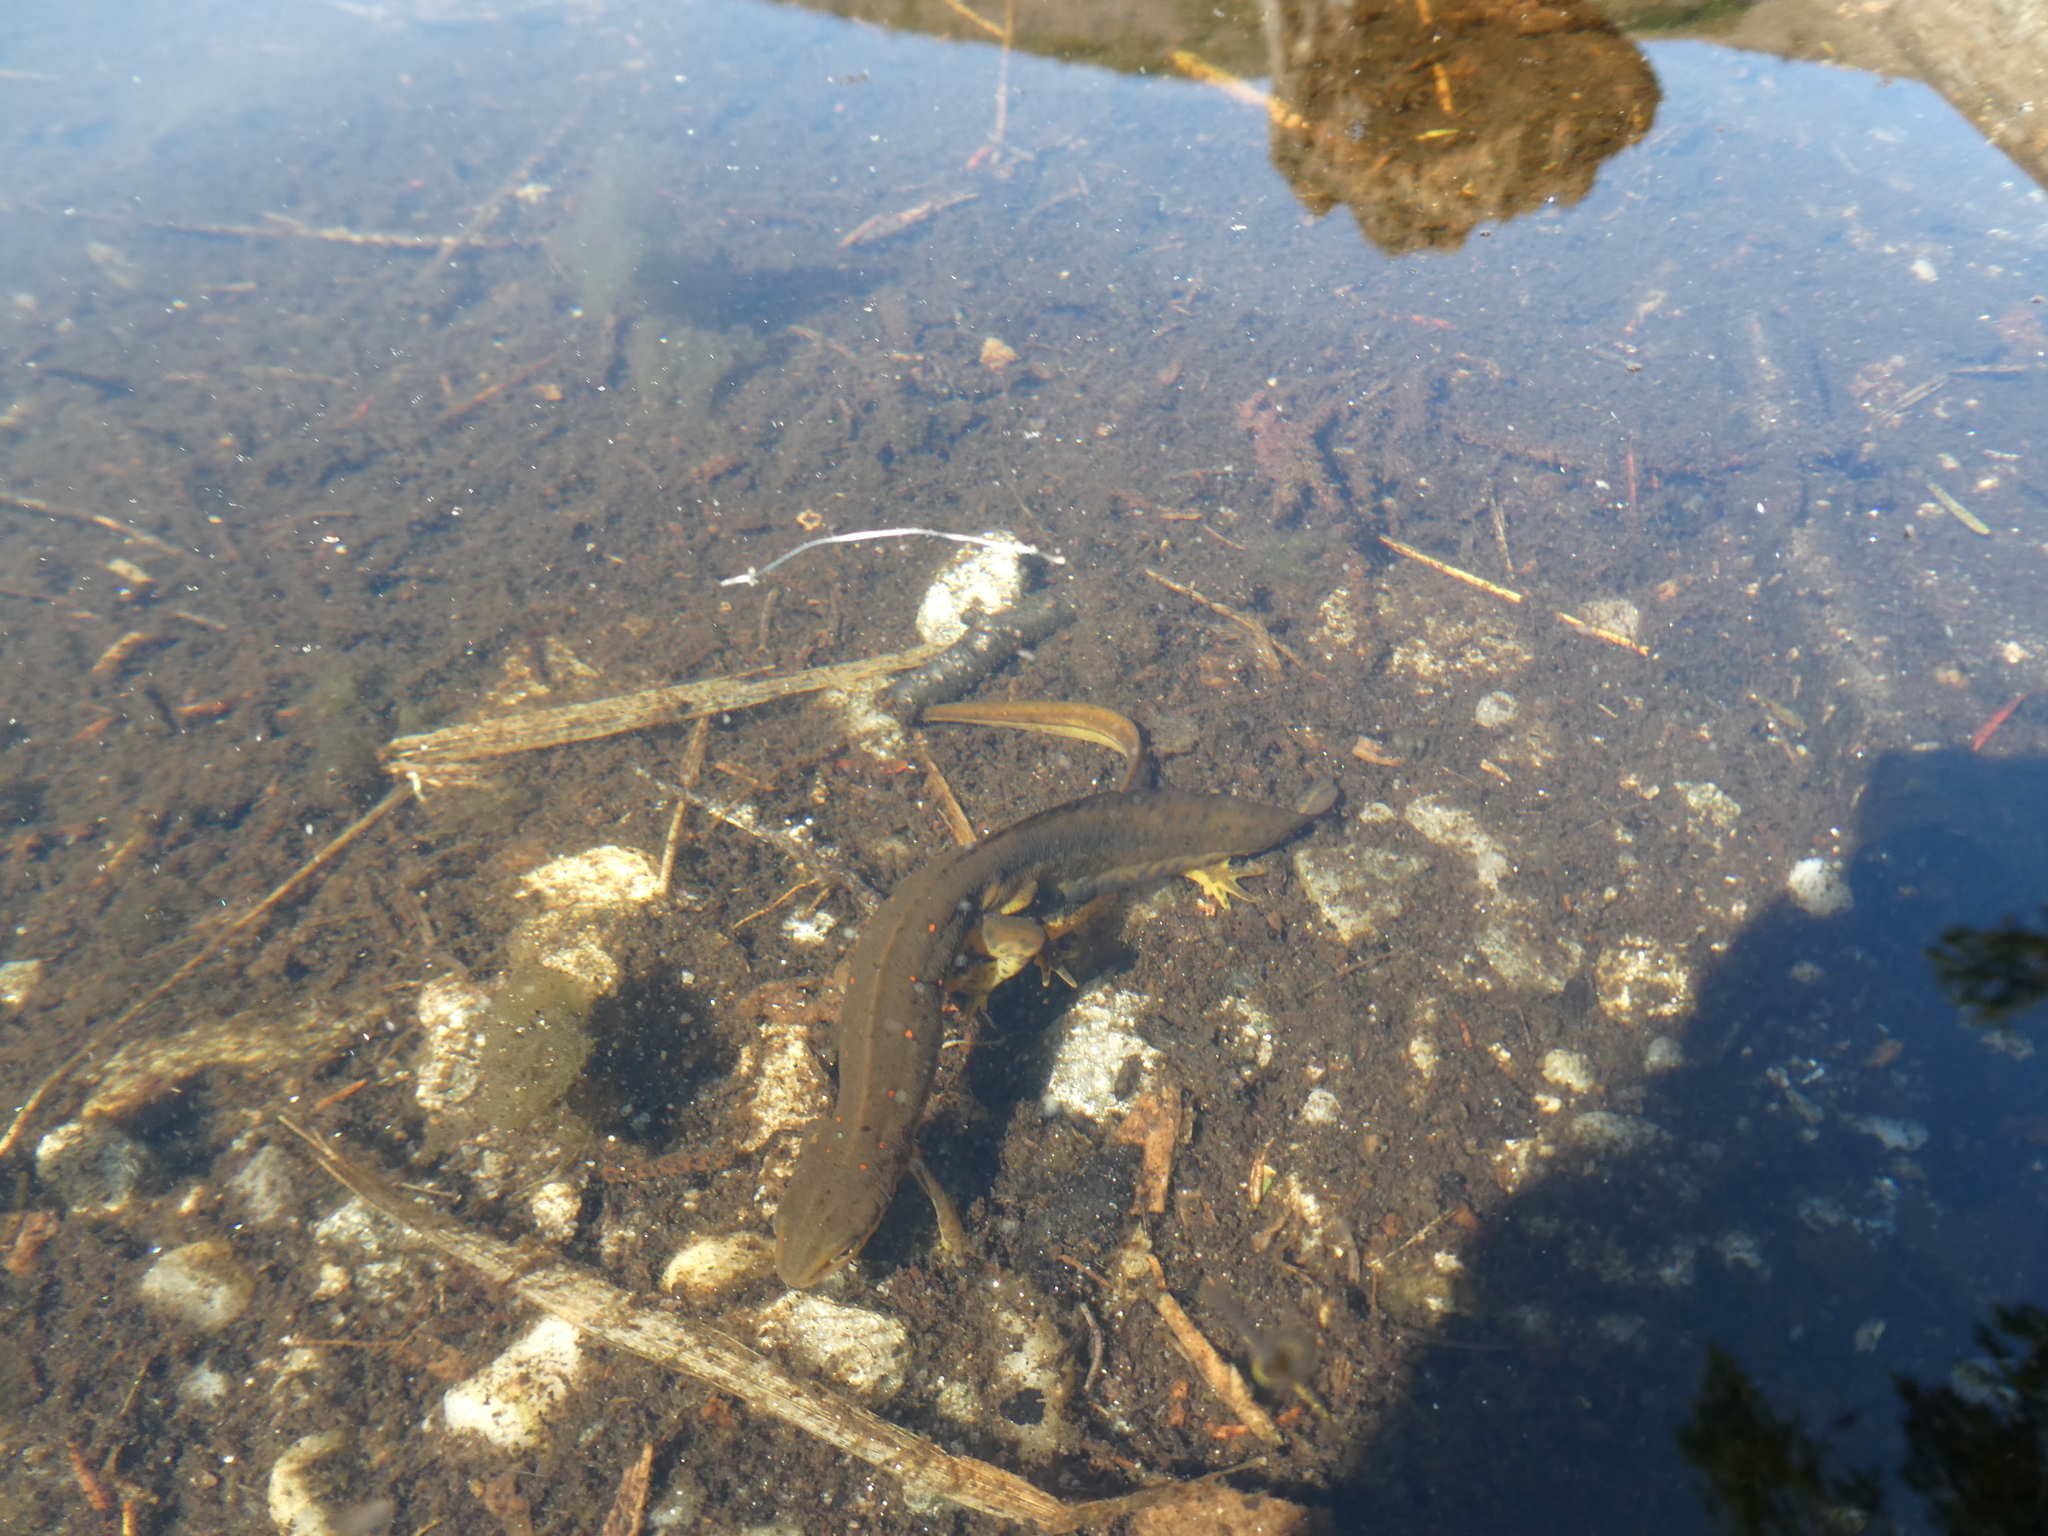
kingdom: Animalia
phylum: Chordata
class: Amphibia
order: Caudata
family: Salamandridae
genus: Notophthalmus
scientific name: Notophthalmus viridescens
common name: Eastern newt
